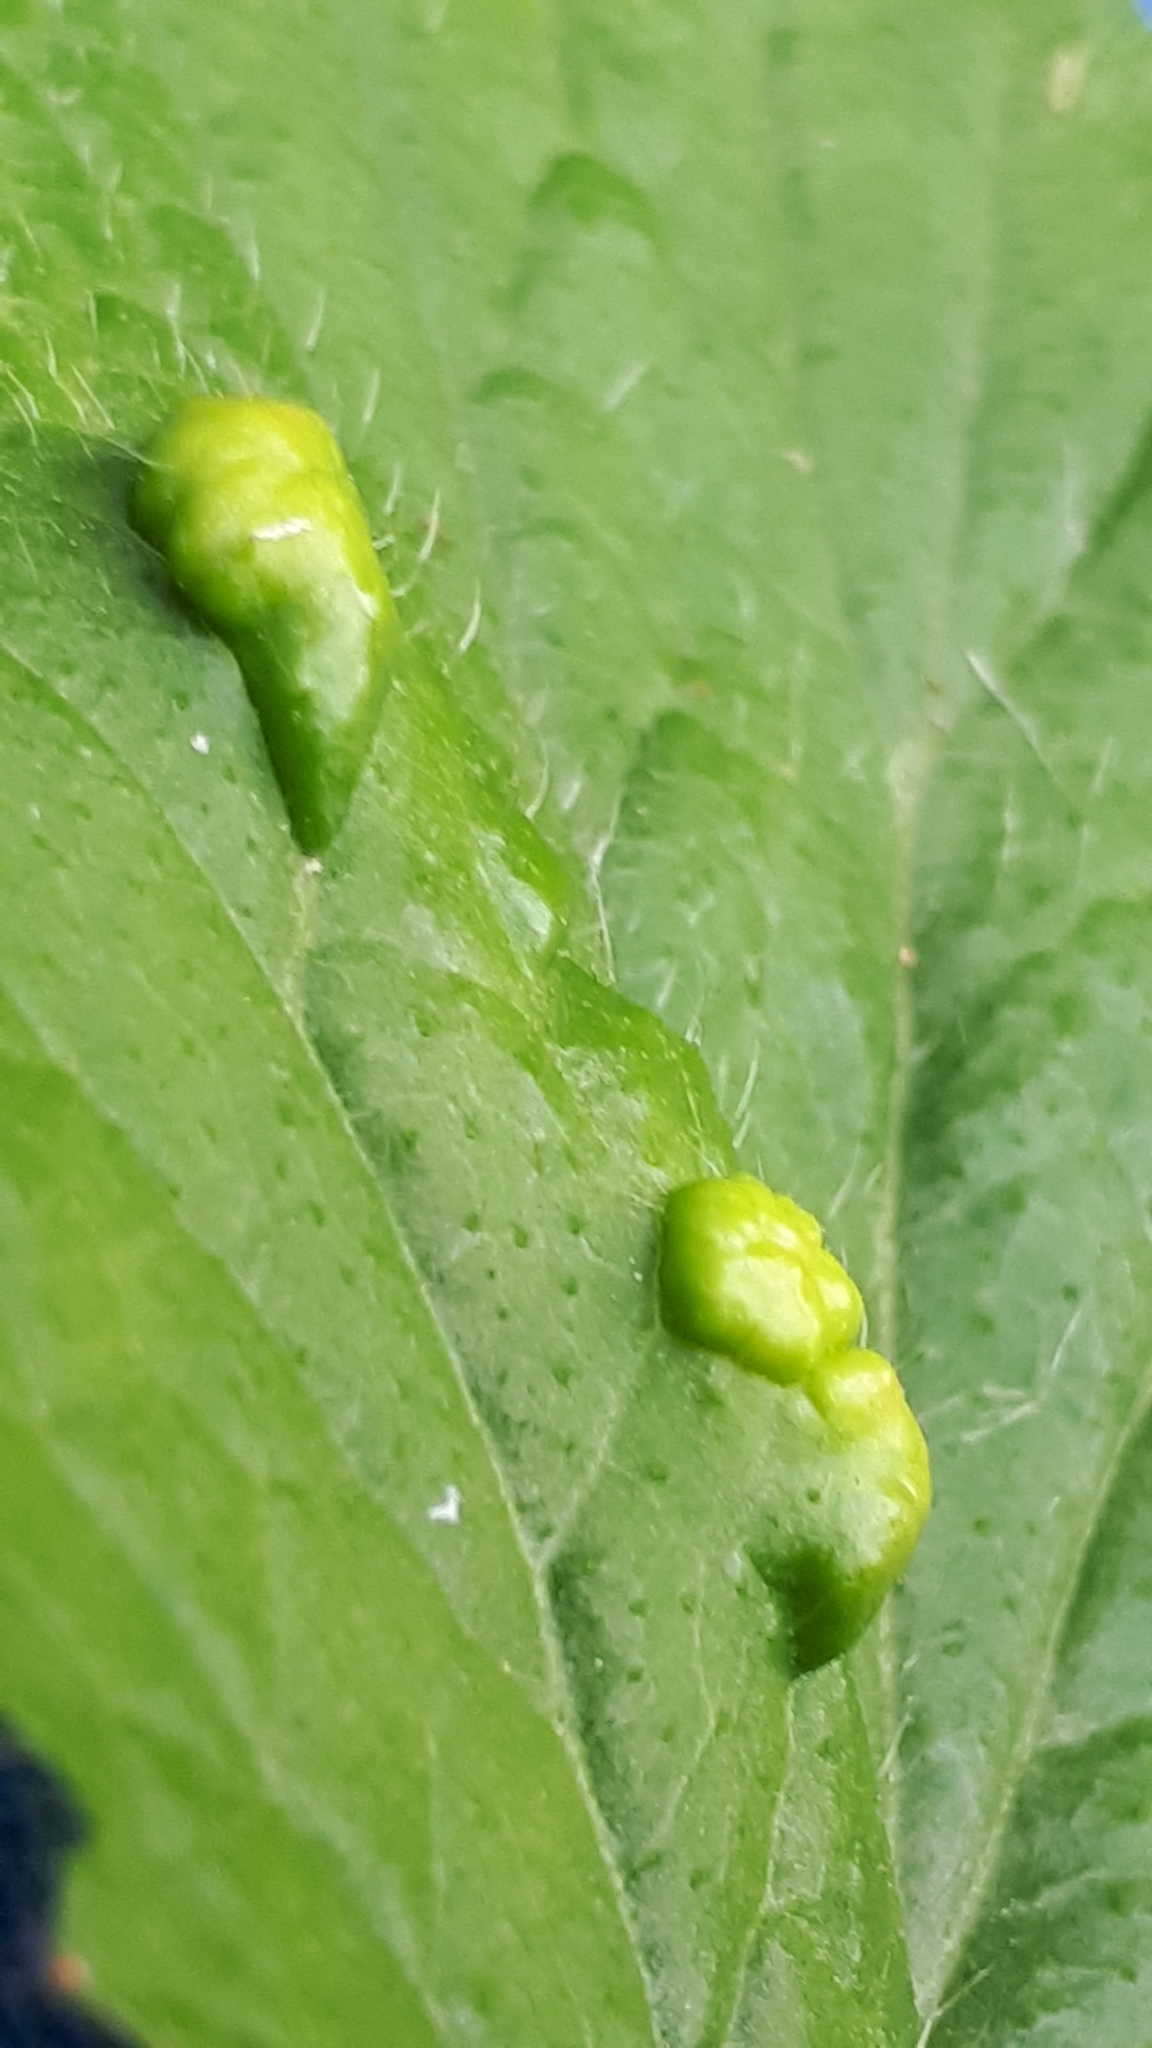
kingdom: Animalia
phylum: Arthropoda
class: Arachnida
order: Trombidiformes
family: Eriophyidae
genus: Cecidophyes
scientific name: Cecidophyes nudus
